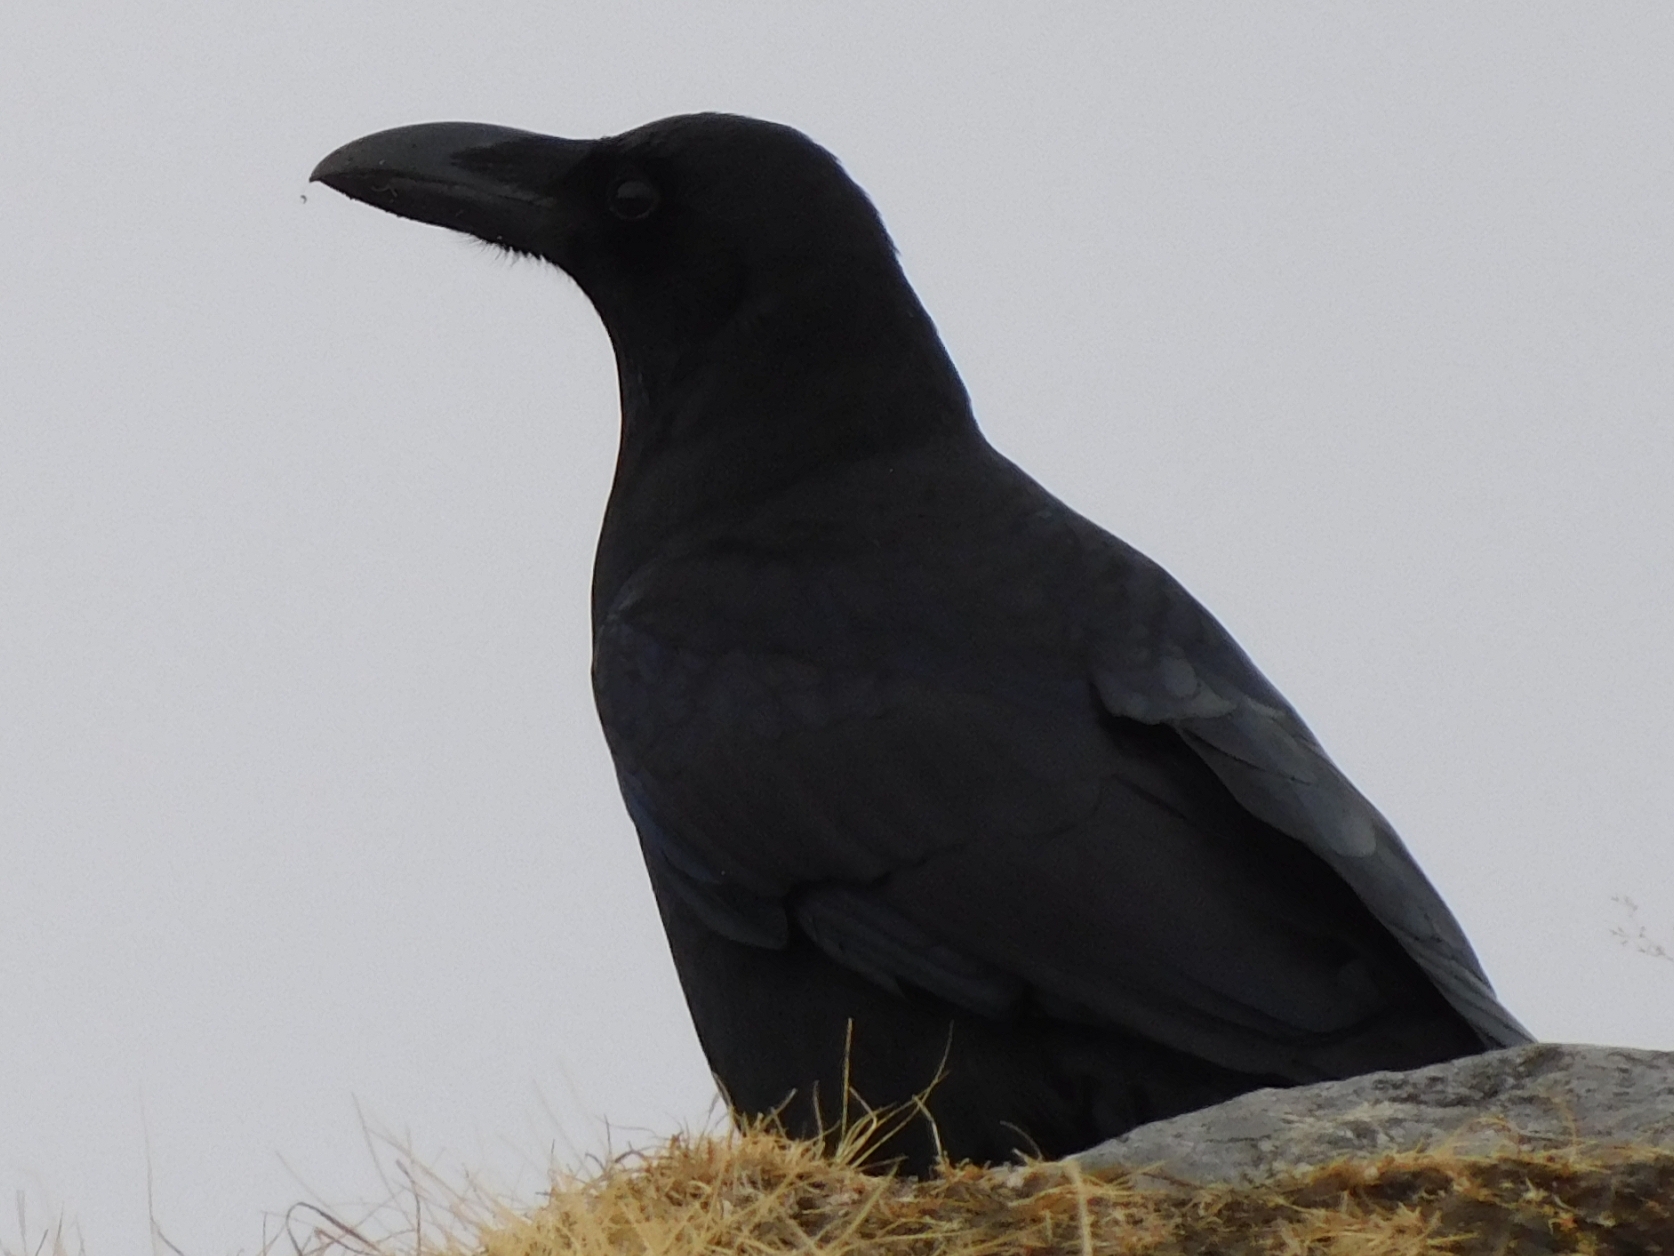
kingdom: Animalia
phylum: Chordata
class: Aves
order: Passeriformes
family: Corvidae
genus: Corvus
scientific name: Corvus macrorhynchos
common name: Large-billed crow
